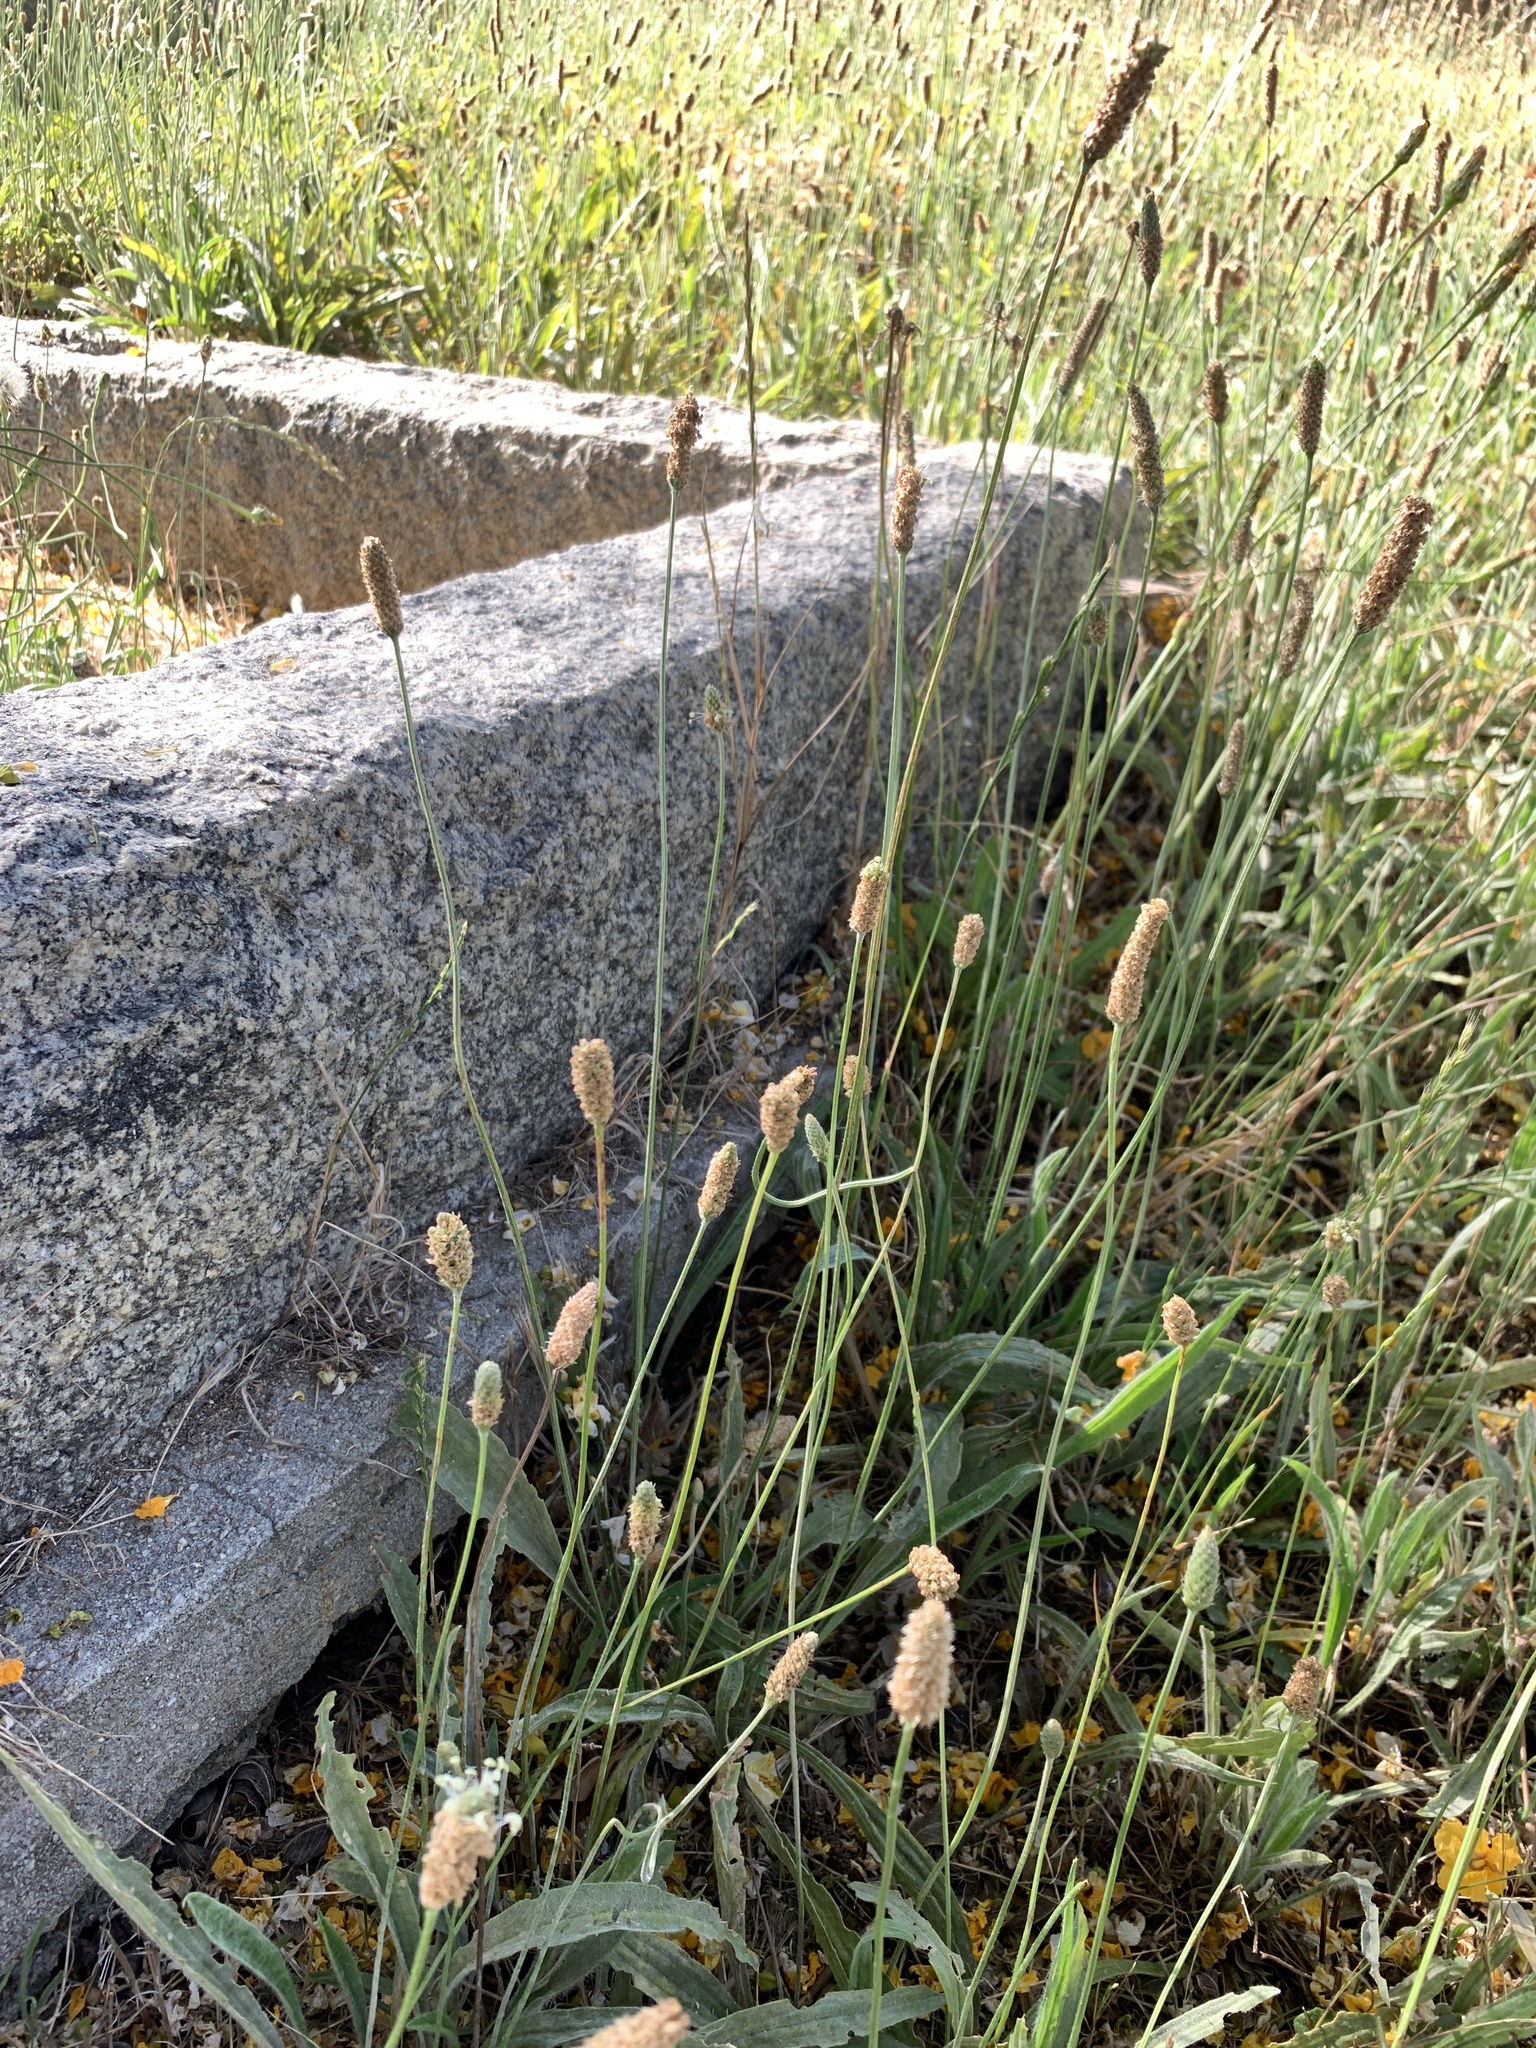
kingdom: Plantae
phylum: Tracheophyta
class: Magnoliopsida
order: Lamiales
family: Plantaginaceae
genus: Plantago
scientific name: Plantago lanceolata
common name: Ribwort plantain
